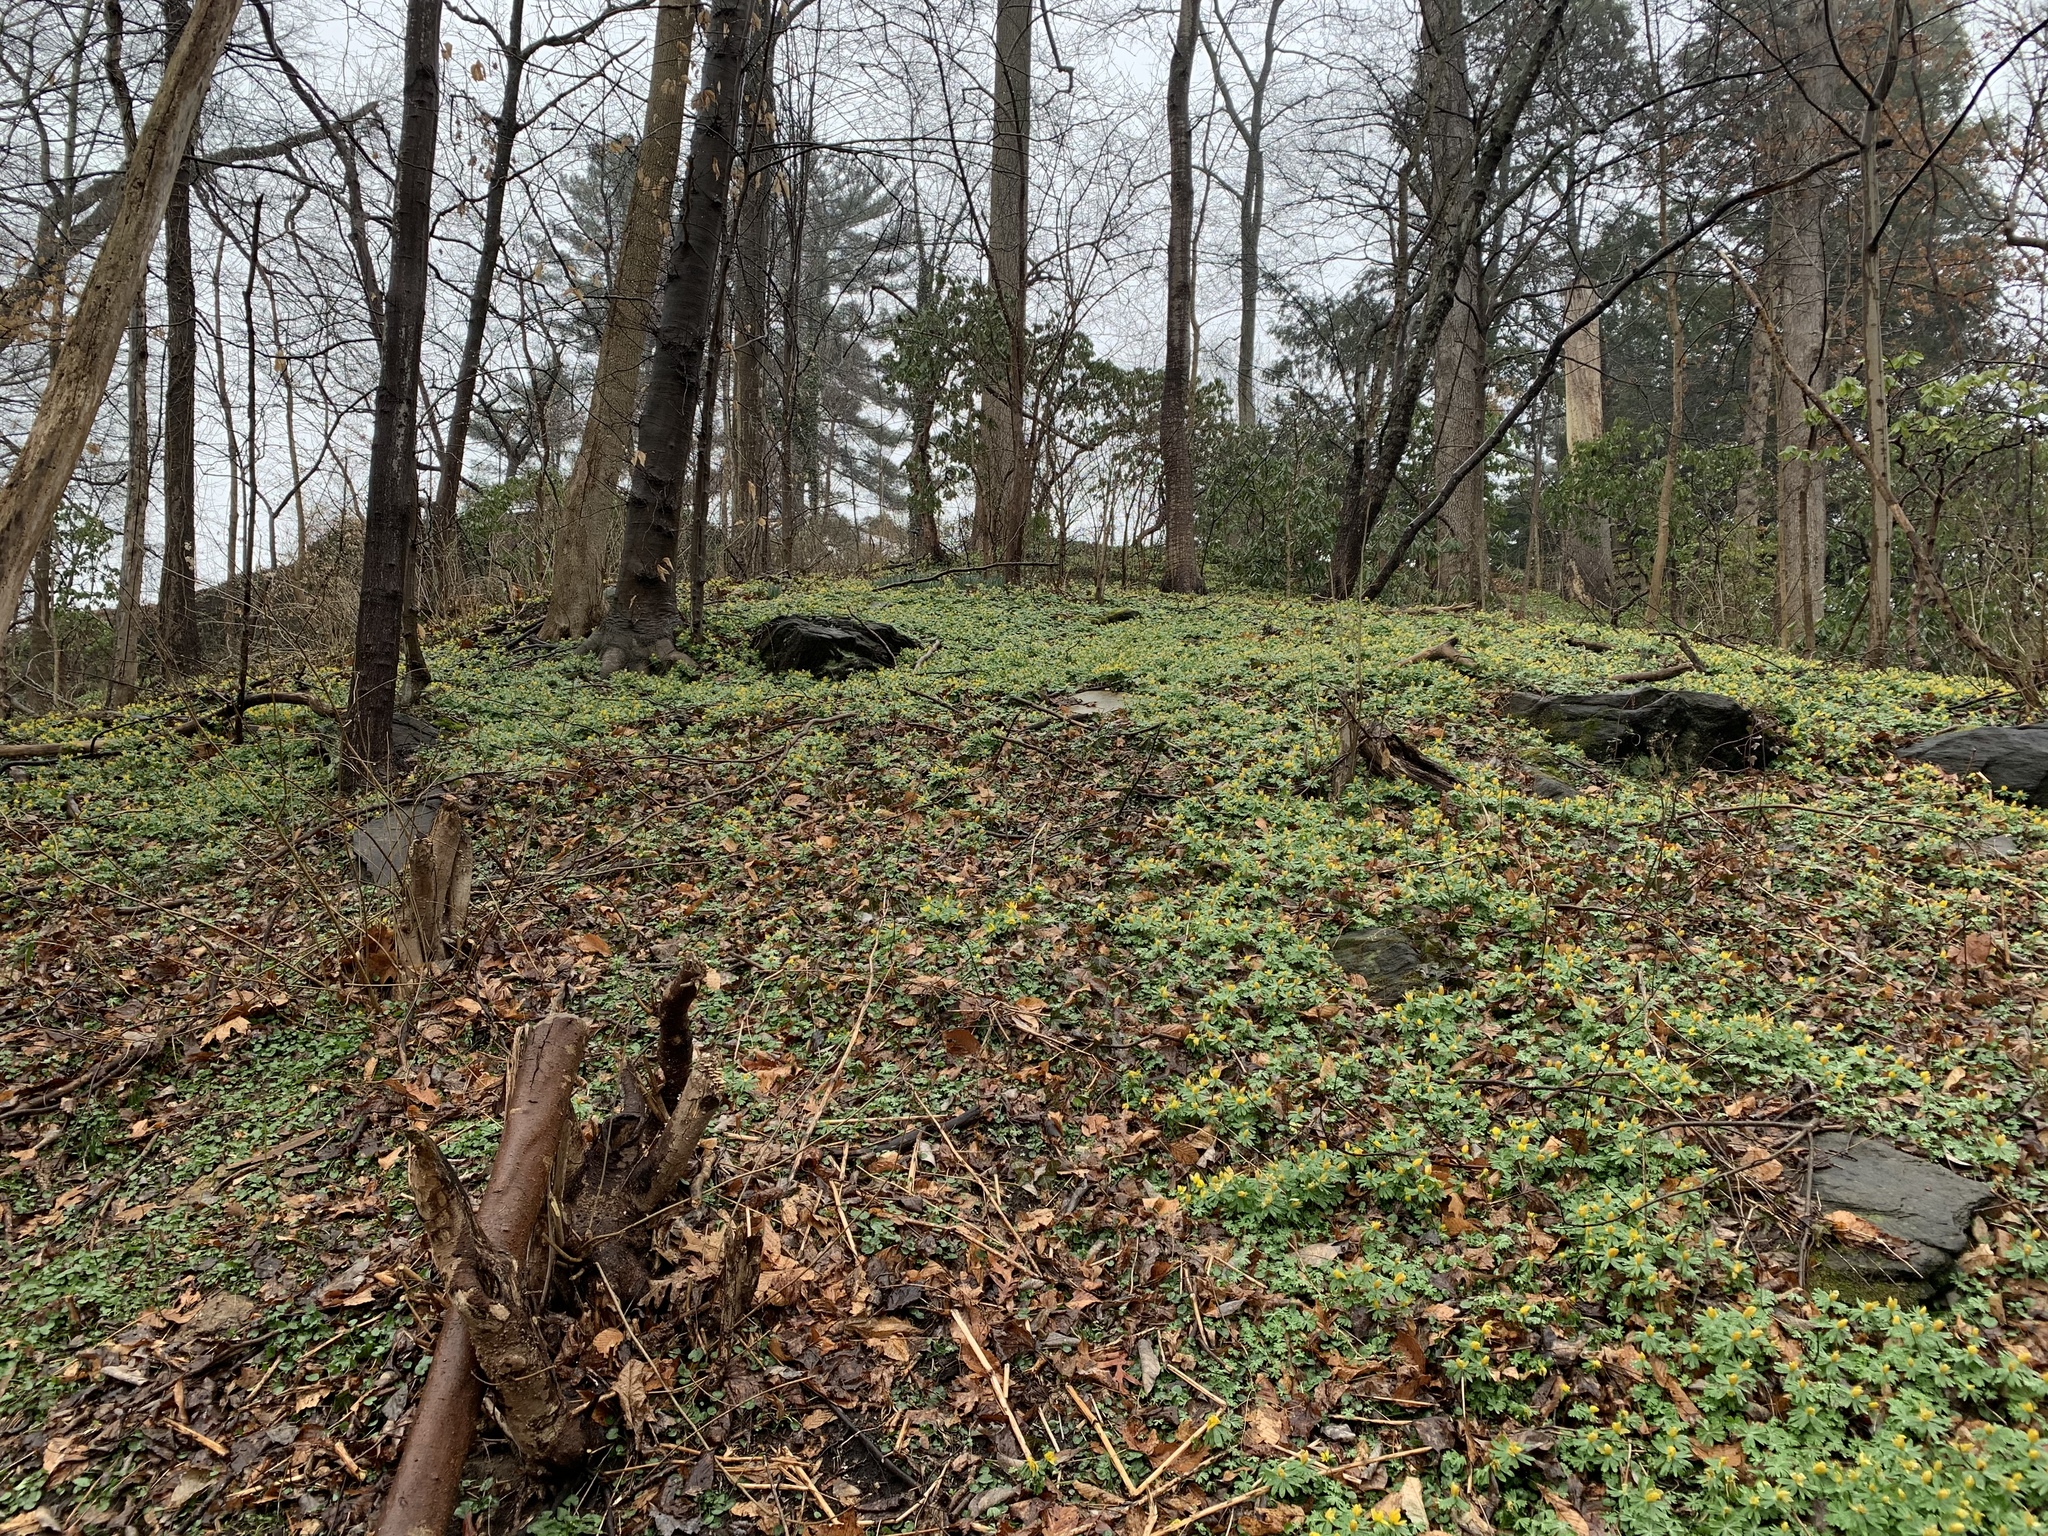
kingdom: Plantae
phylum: Tracheophyta
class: Magnoliopsida
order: Ranunculales
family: Ranunculaceae
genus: Eranthis
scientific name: Eranthis hyemalis
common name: Winter aconite
